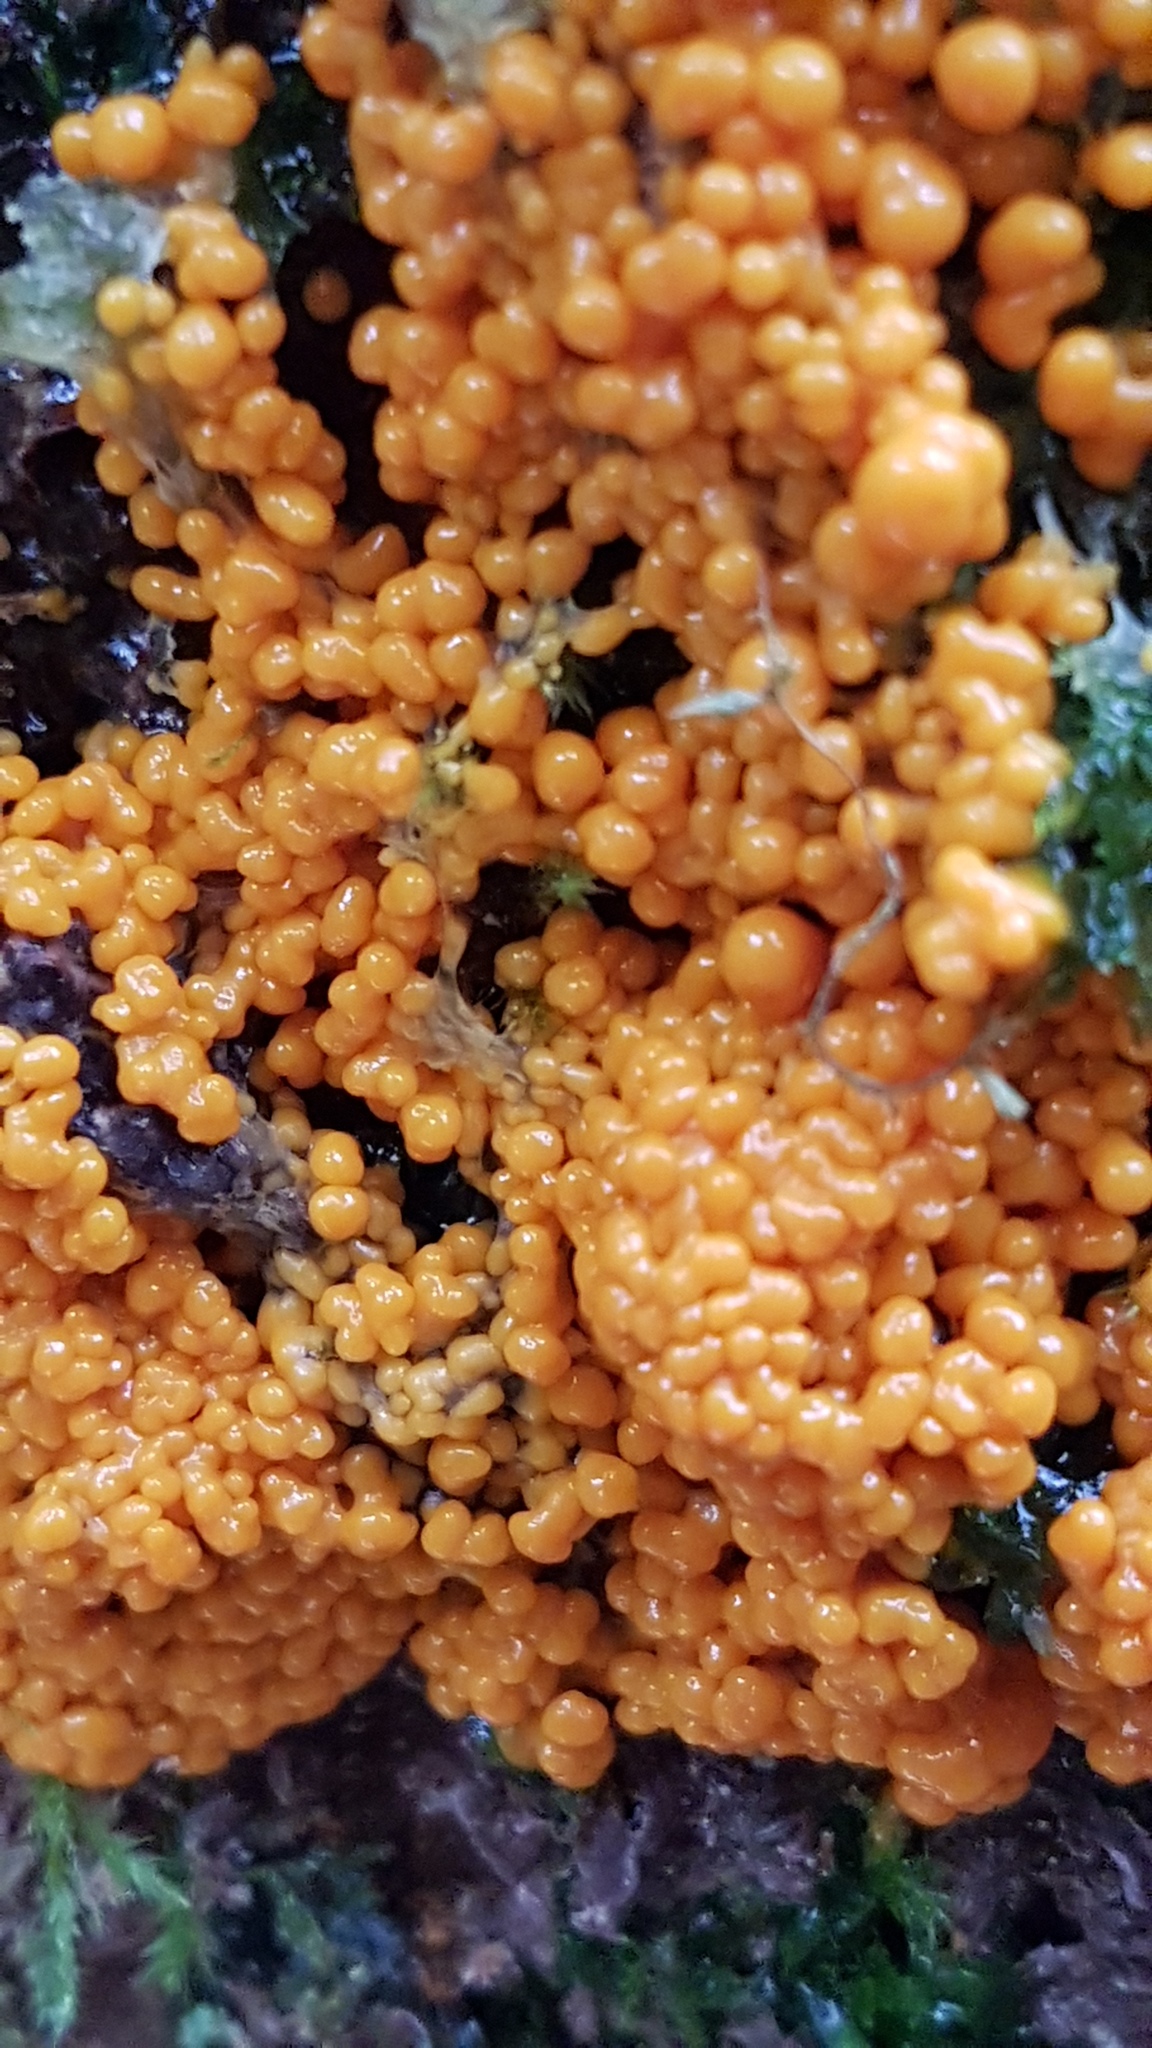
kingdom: Protozoa
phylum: Mycetozoa
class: Myxomycetes
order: Physarales
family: Physaraceae
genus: Badhamia
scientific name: Badhamia utricularis
